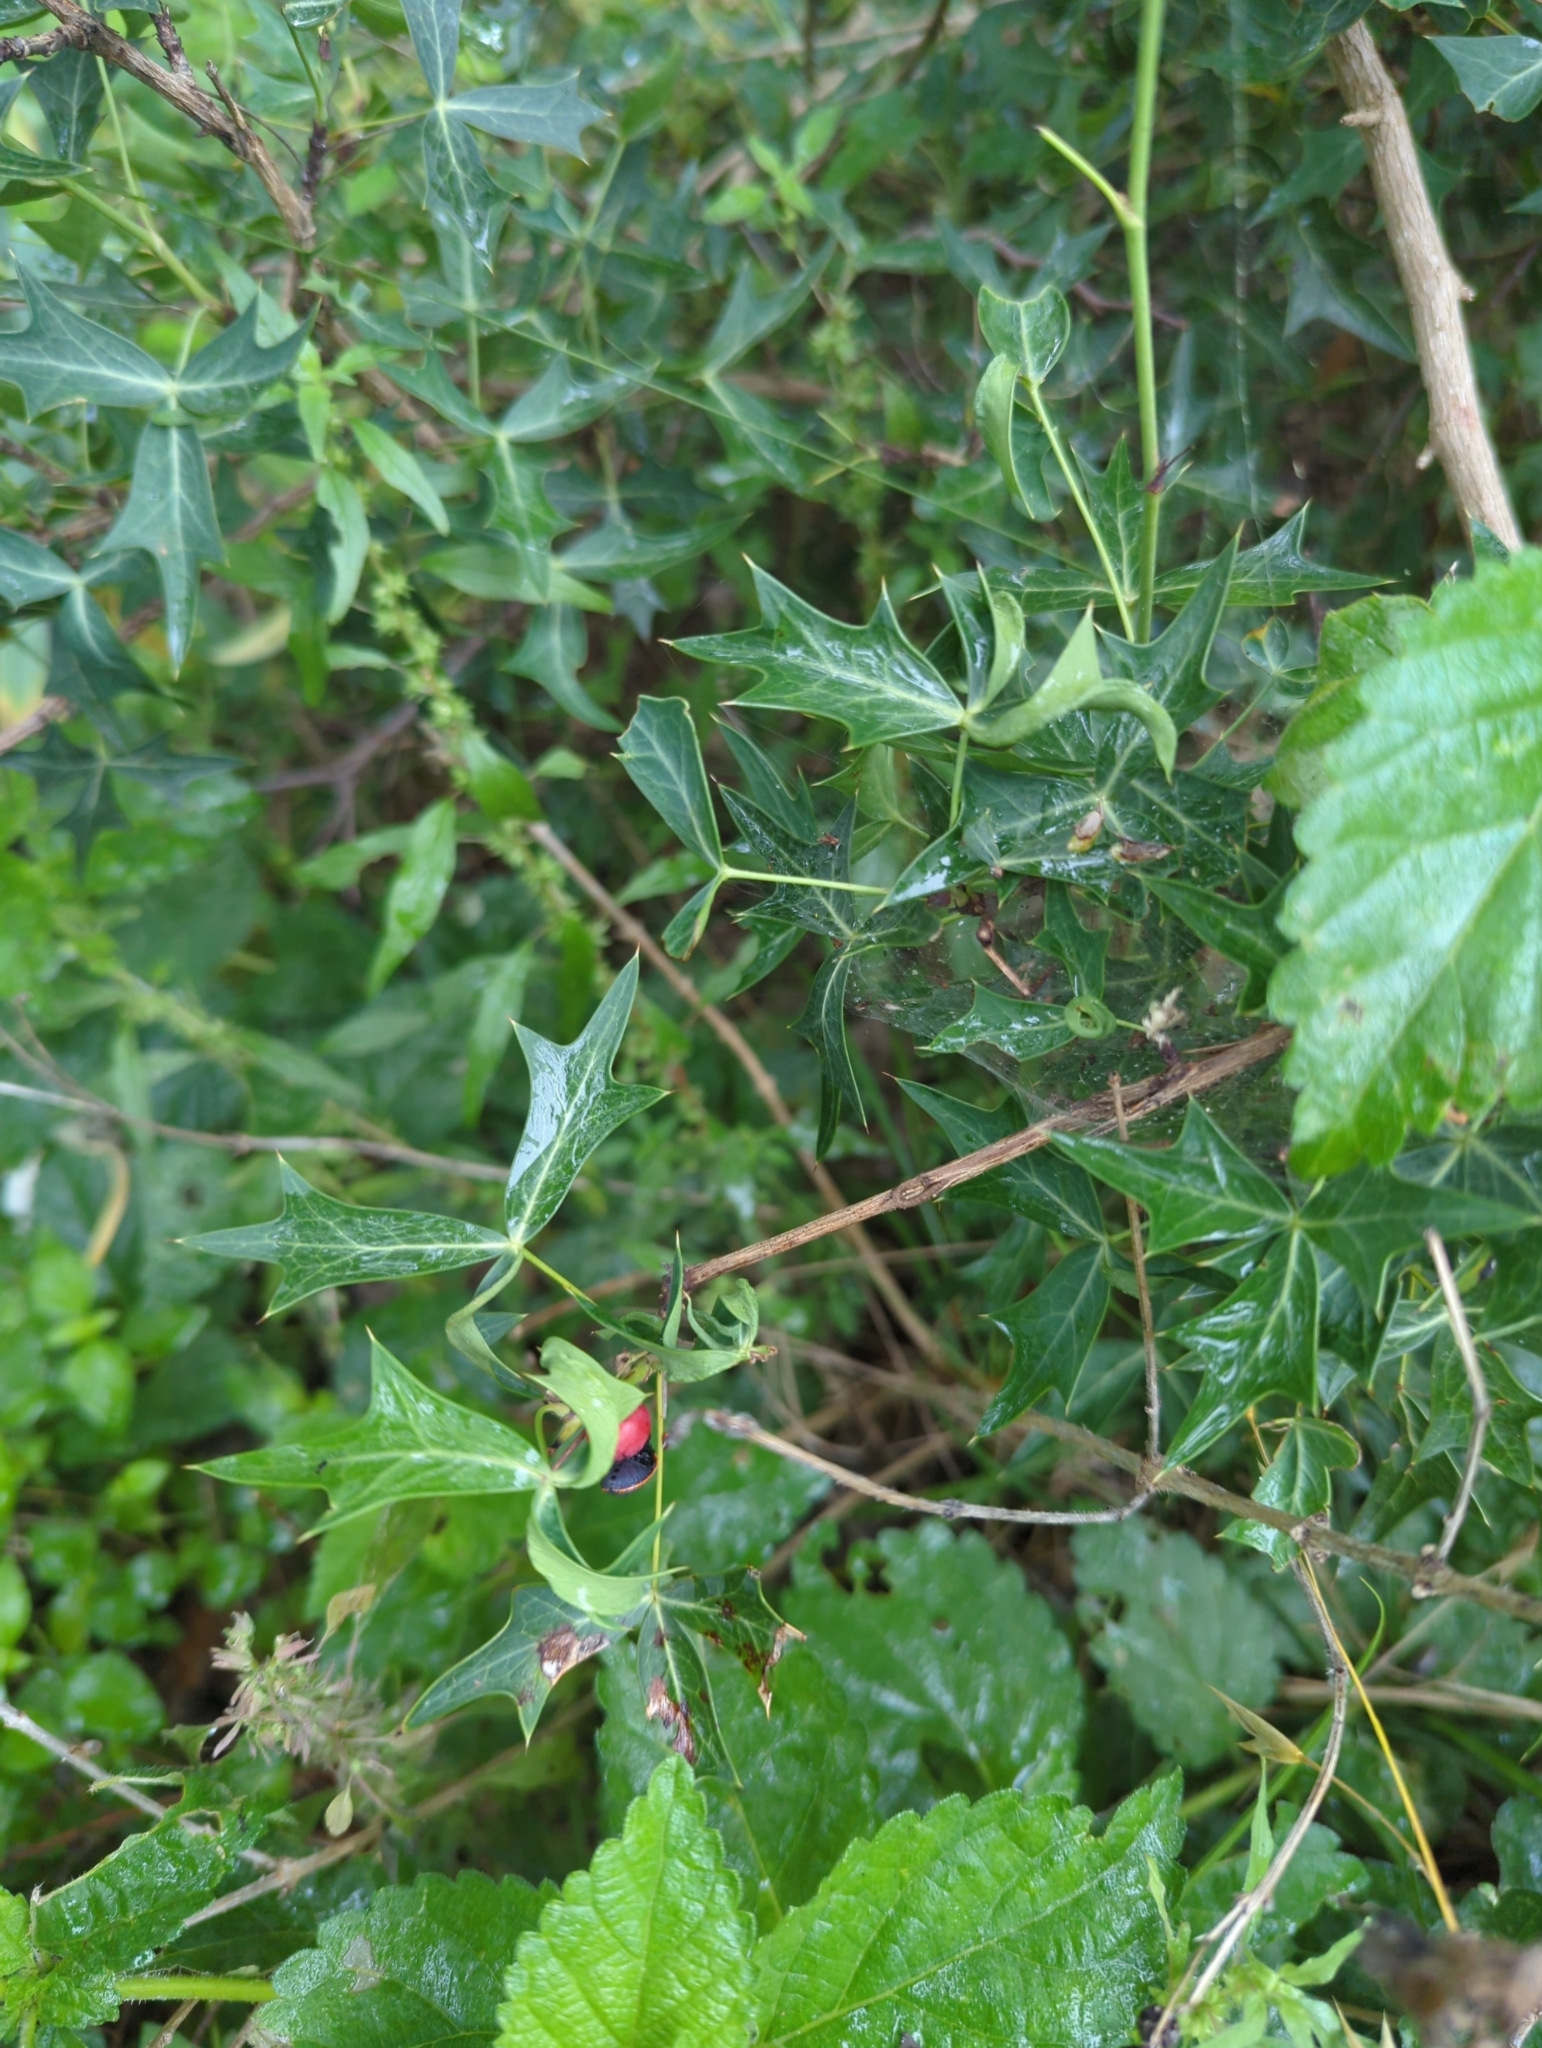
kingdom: Plantae
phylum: Tracheophyta
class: Magnoliopsida
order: Ranunculales
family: Berberidaceae
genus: Alloberberis
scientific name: Alloberberis trifoliolata
